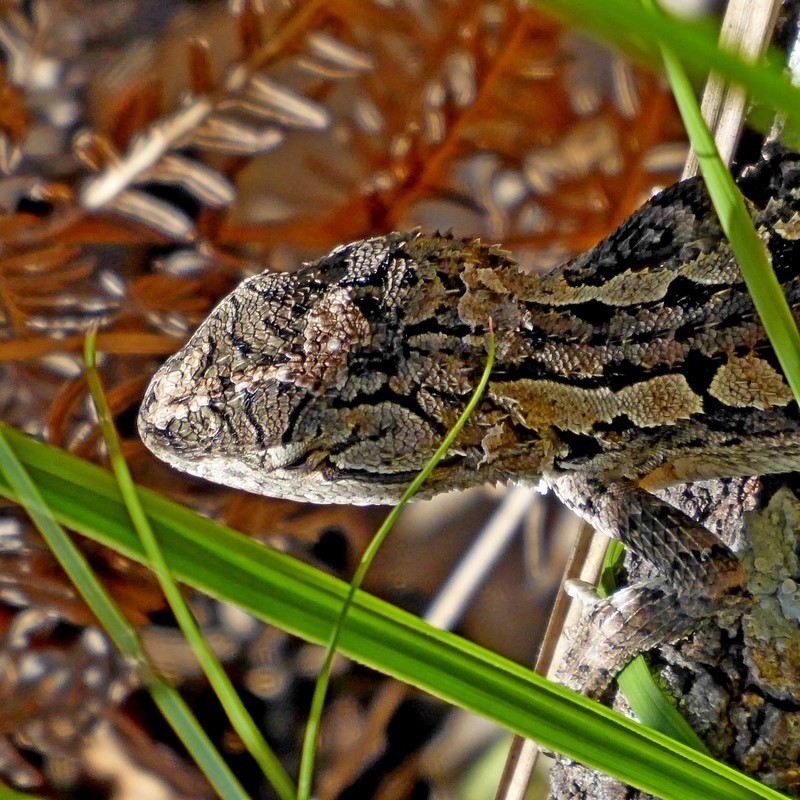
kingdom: Animalia
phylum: Chordata
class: Squamata
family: Agamidae
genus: Amphibolurus
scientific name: Amphibolurus muricatus
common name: Jacky lizard
